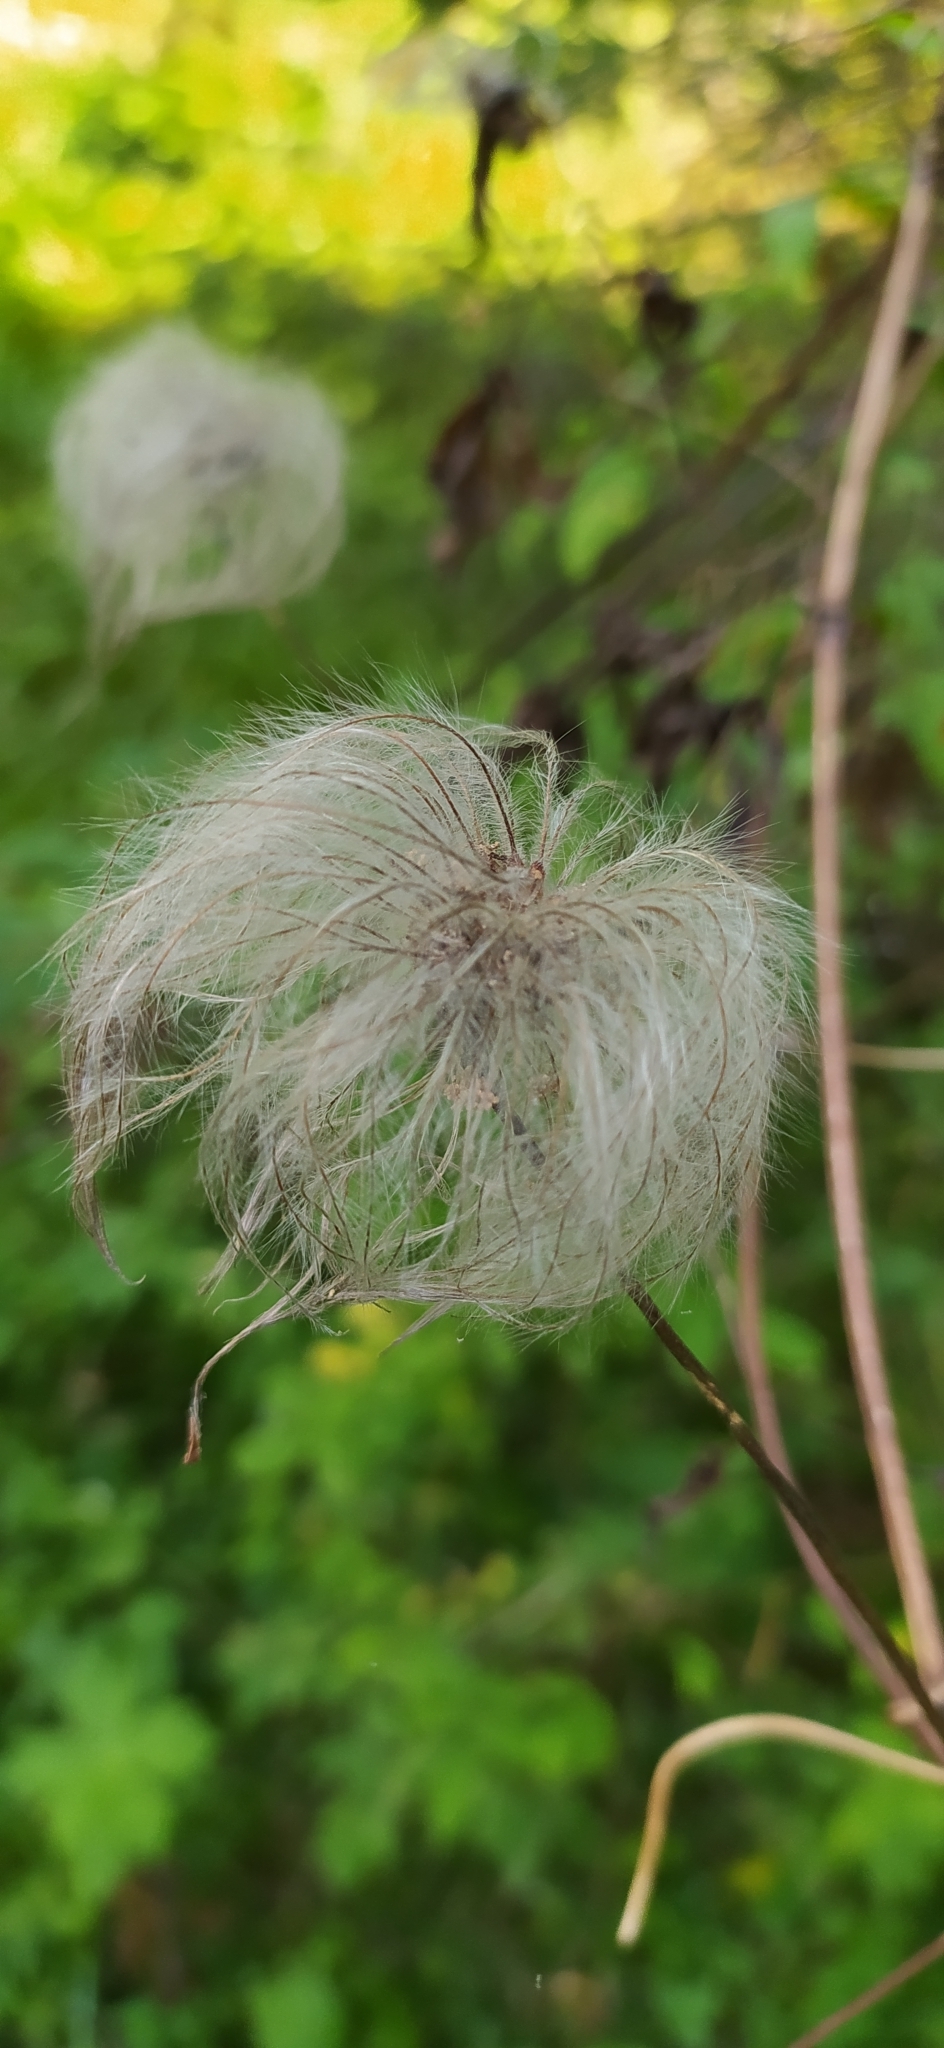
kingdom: Plantae
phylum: Tracheophyta
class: Magnoliopsida
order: Ranunculales
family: Ranunculaceae
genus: Clematis
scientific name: Clematis sibirica
